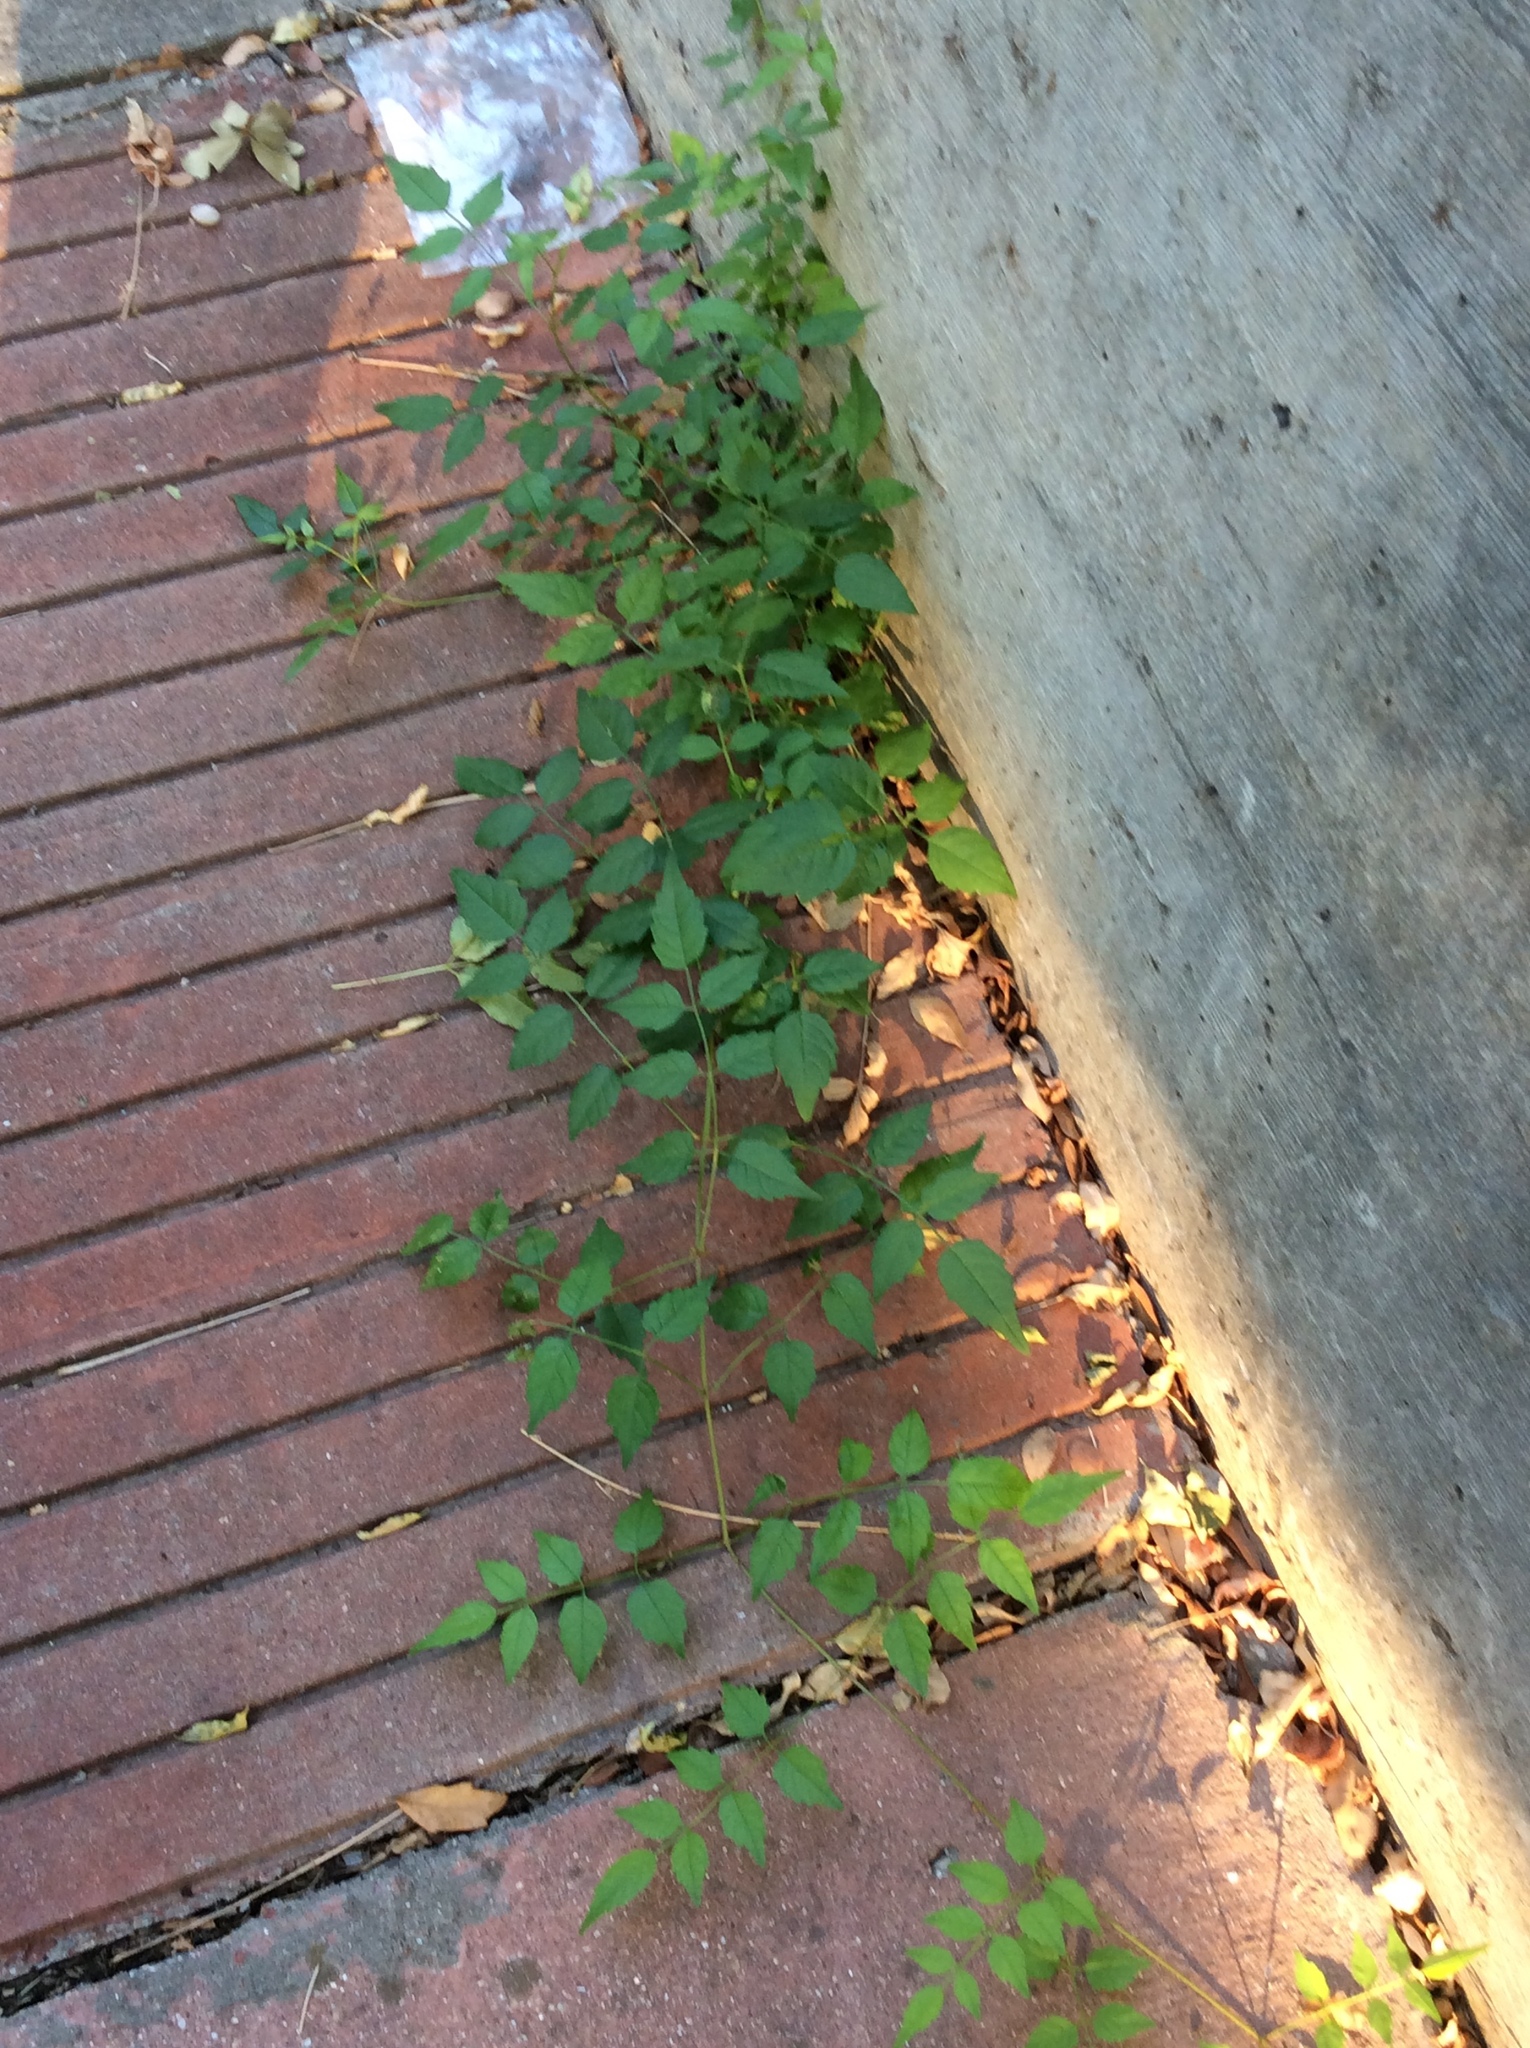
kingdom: Plantae
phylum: Tracheophyta
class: Magnoliopsida
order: Lamiales
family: Bignoniaceae
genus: Campsis
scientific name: Campsis radicans
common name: Trumpet-creeper
